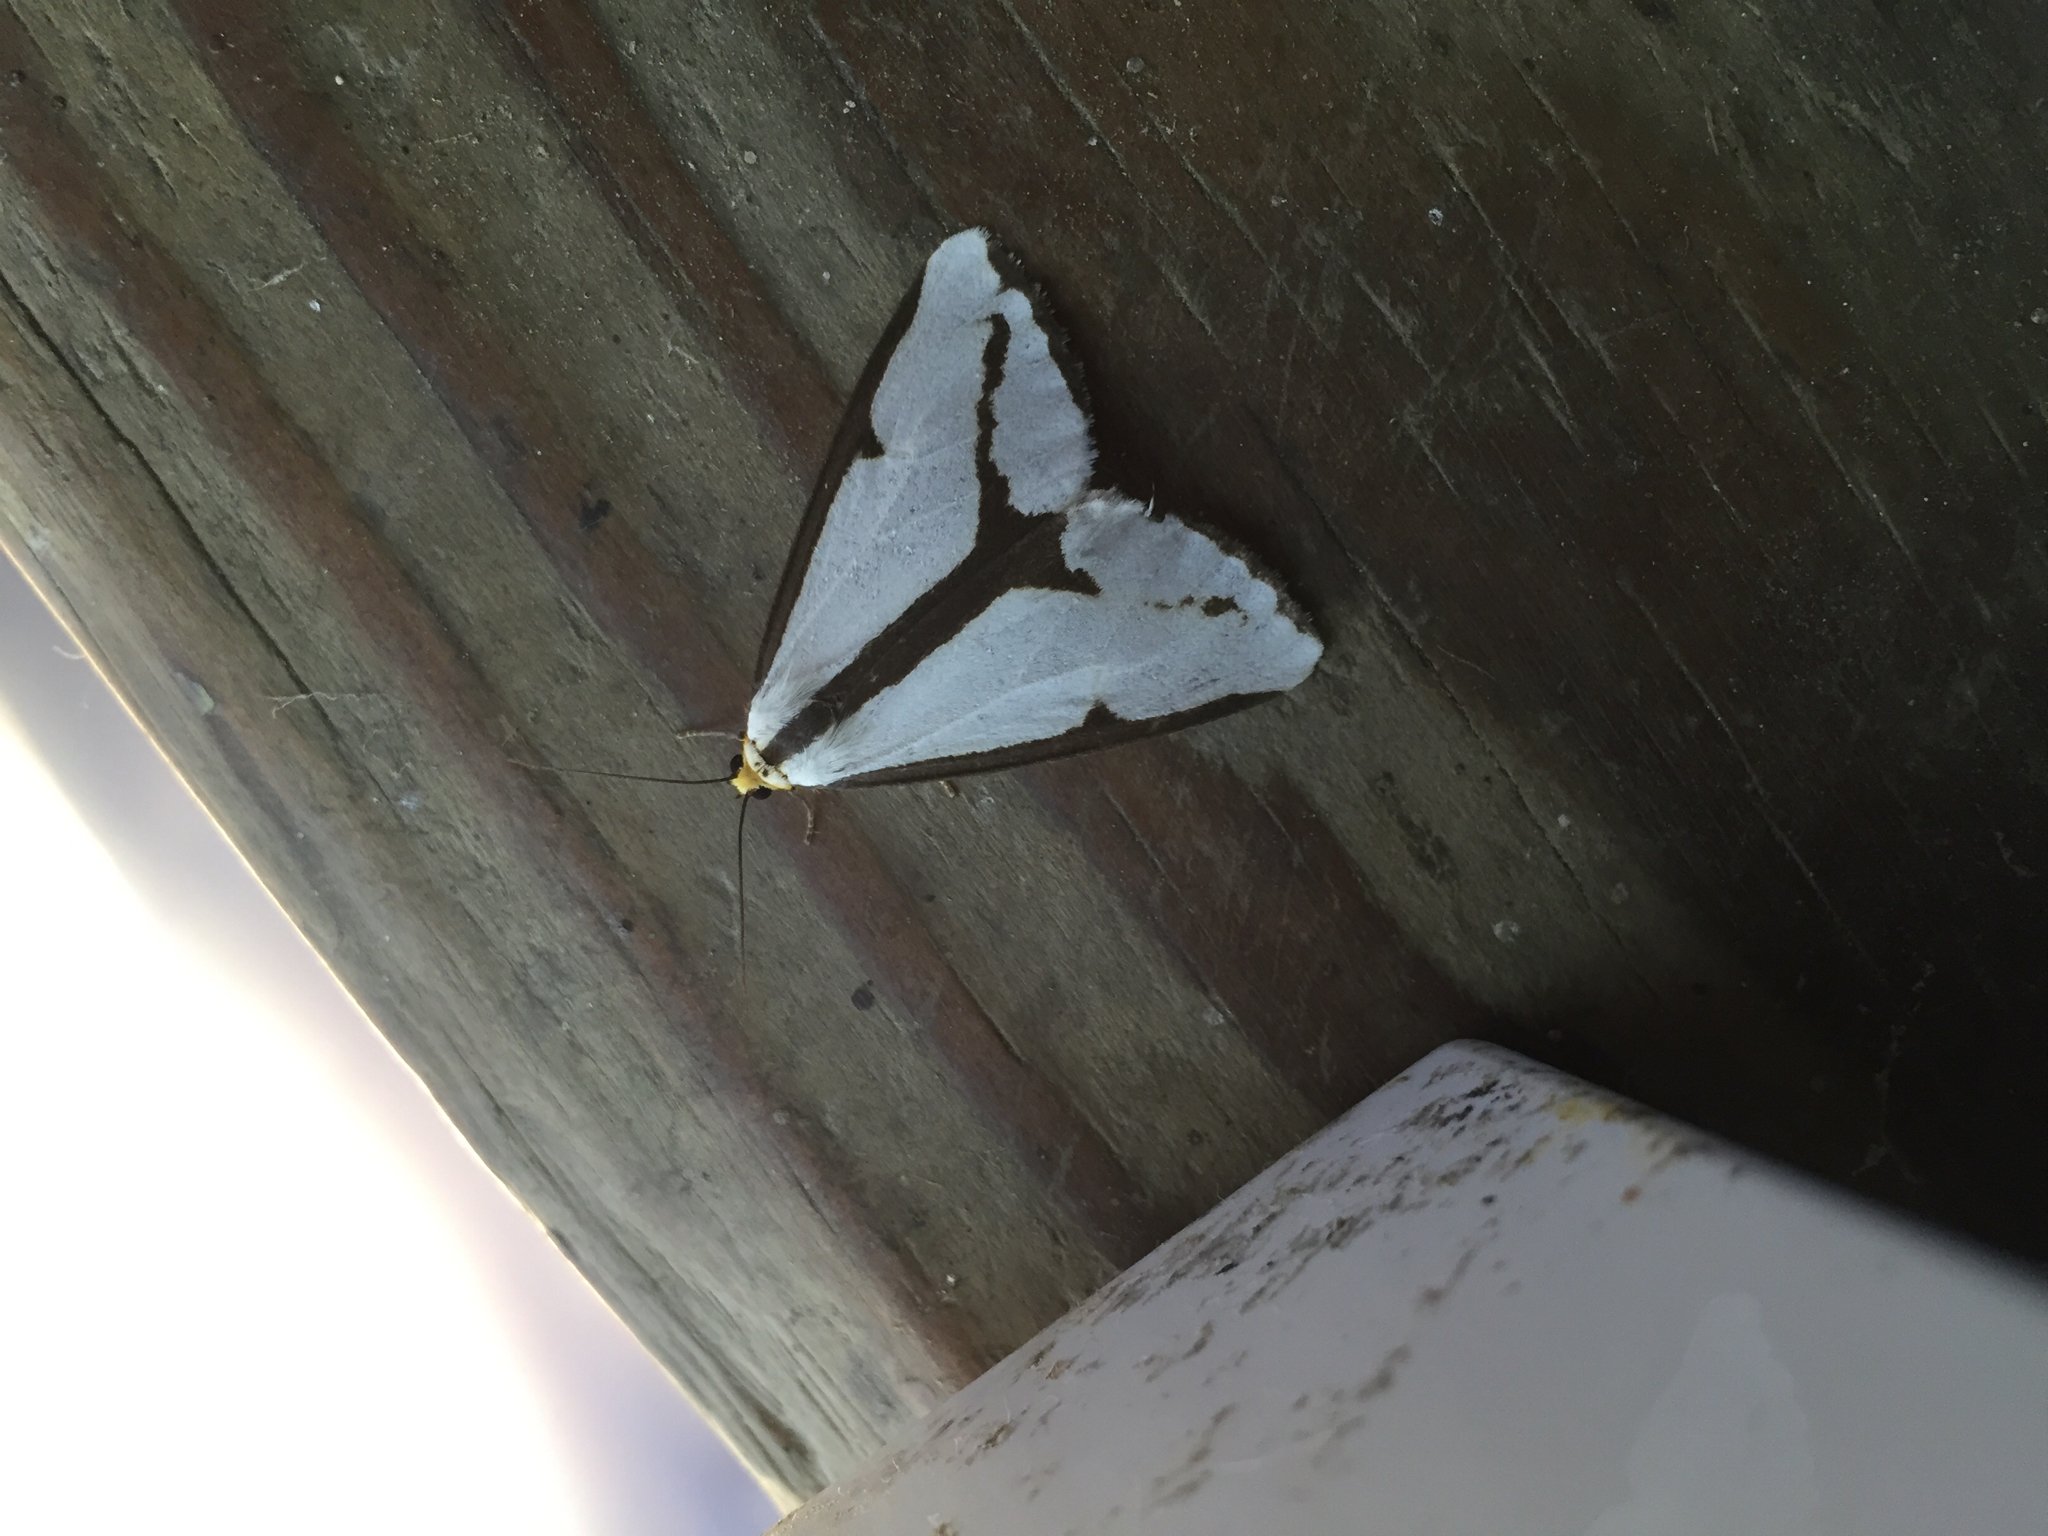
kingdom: Animalia
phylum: Arthropoda
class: Insecta
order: Lepidoptera
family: Erebidae
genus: Haploa
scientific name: Haploa lecontei
